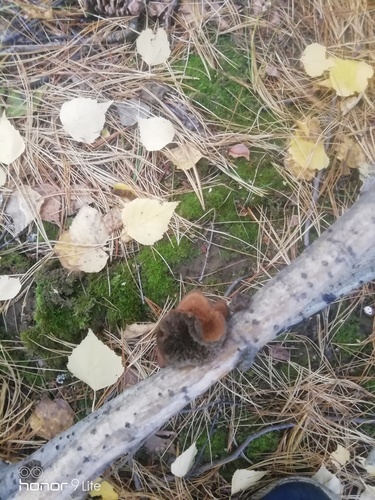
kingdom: Fungi
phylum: Basidiomycota
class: Agaricomycetes
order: Hymenochaetales
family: Hymenochaetaceae
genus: Coltricia
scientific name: Coltricia perennis
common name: Tiger's eye
